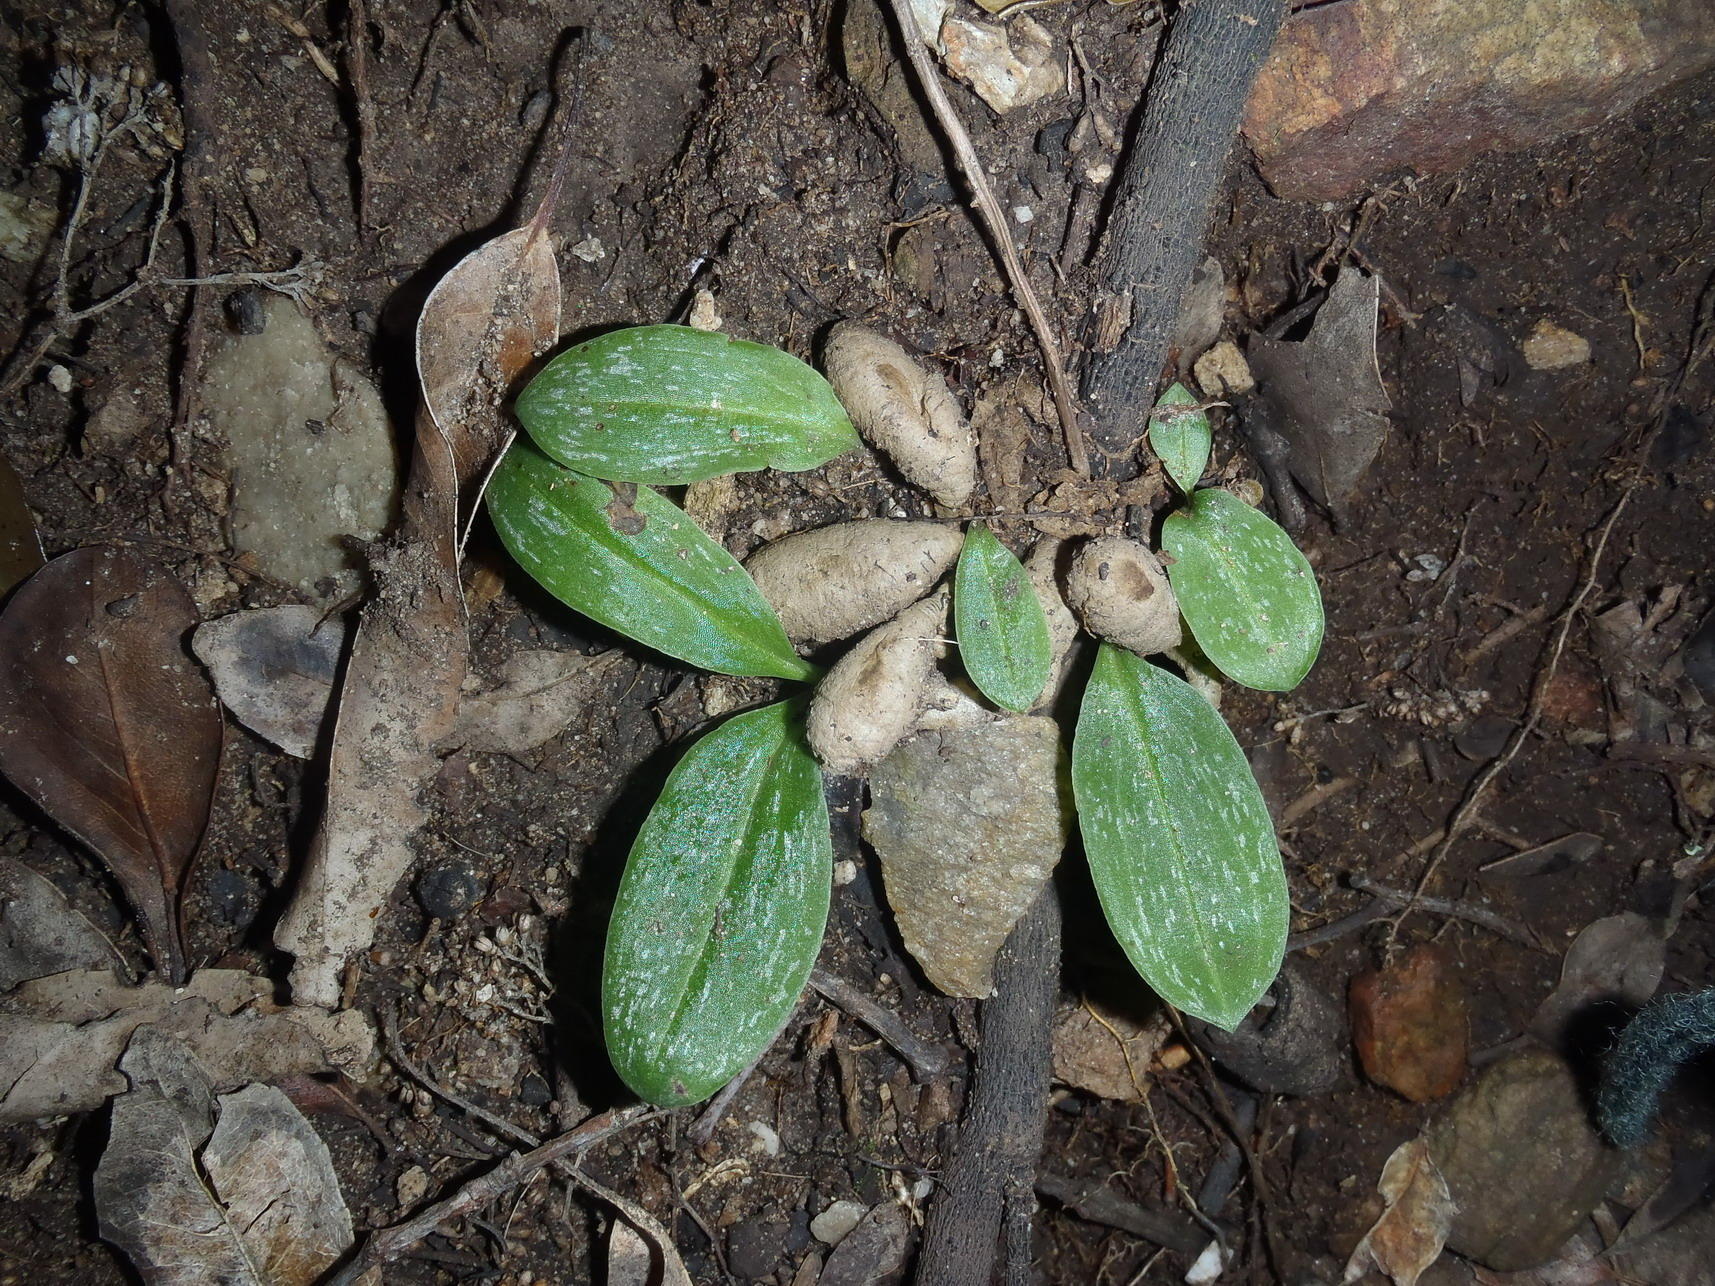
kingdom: Plantae
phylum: Tracheophyta
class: Liliopsida
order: Asparagales
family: Orchidaceae
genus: Habenaria
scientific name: Habenaria arenaria
